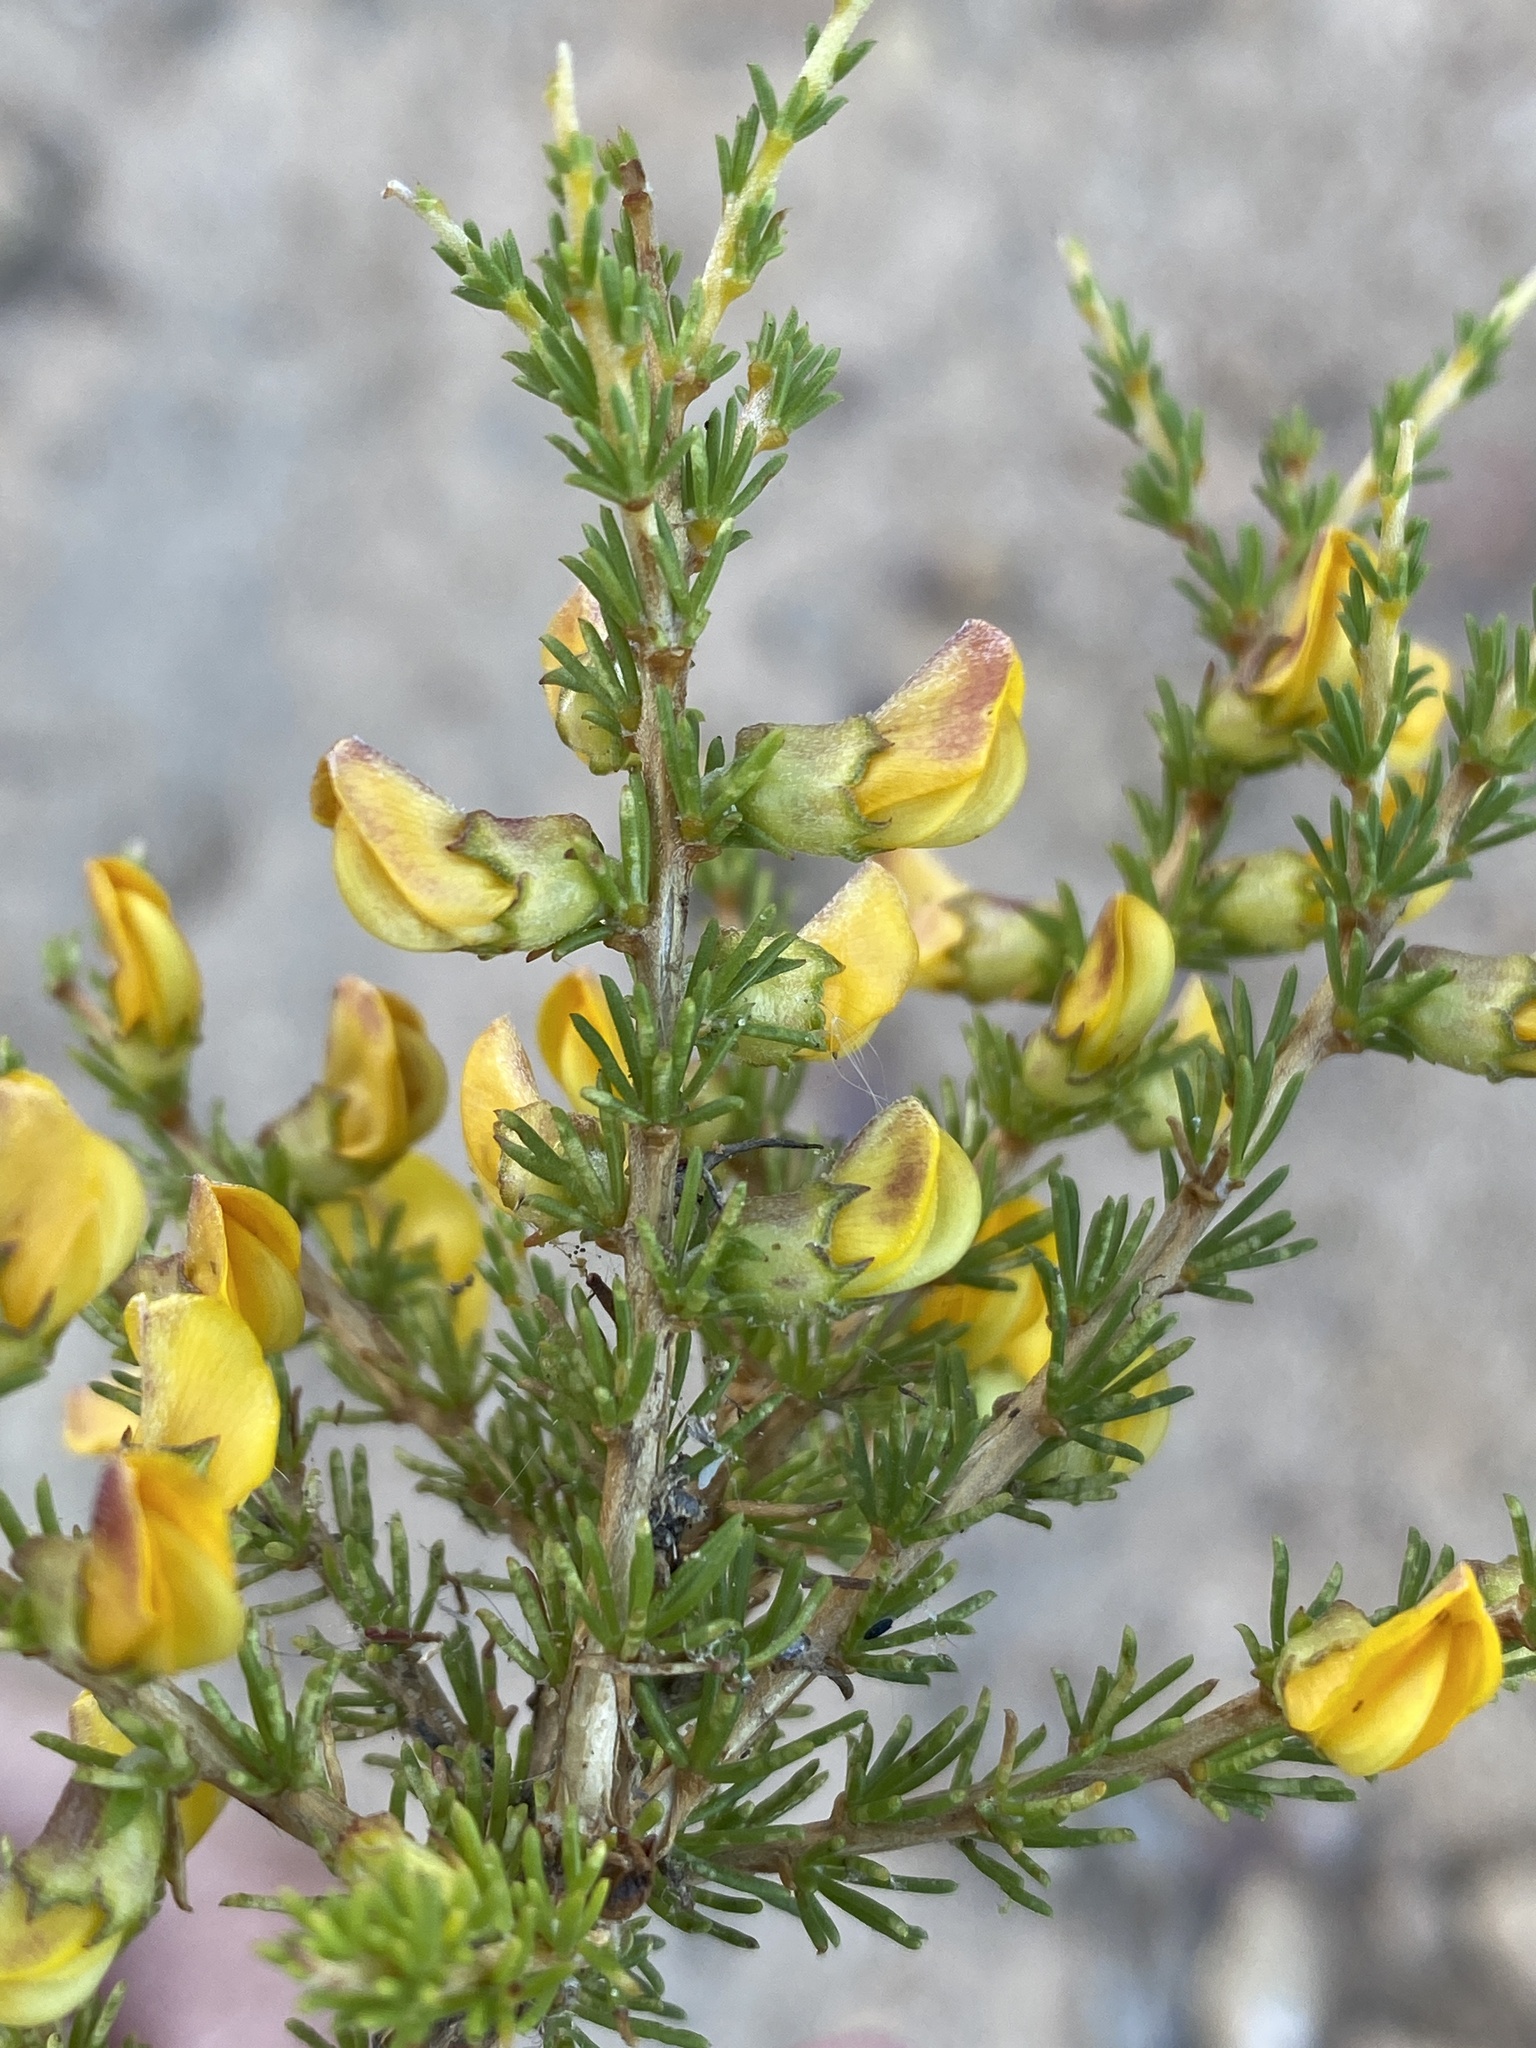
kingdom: Plantae
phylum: Tracheophyta
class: Magnoliopsida
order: Fabales
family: Fabaceae
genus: Aspalathus
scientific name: Aspalathus arida
